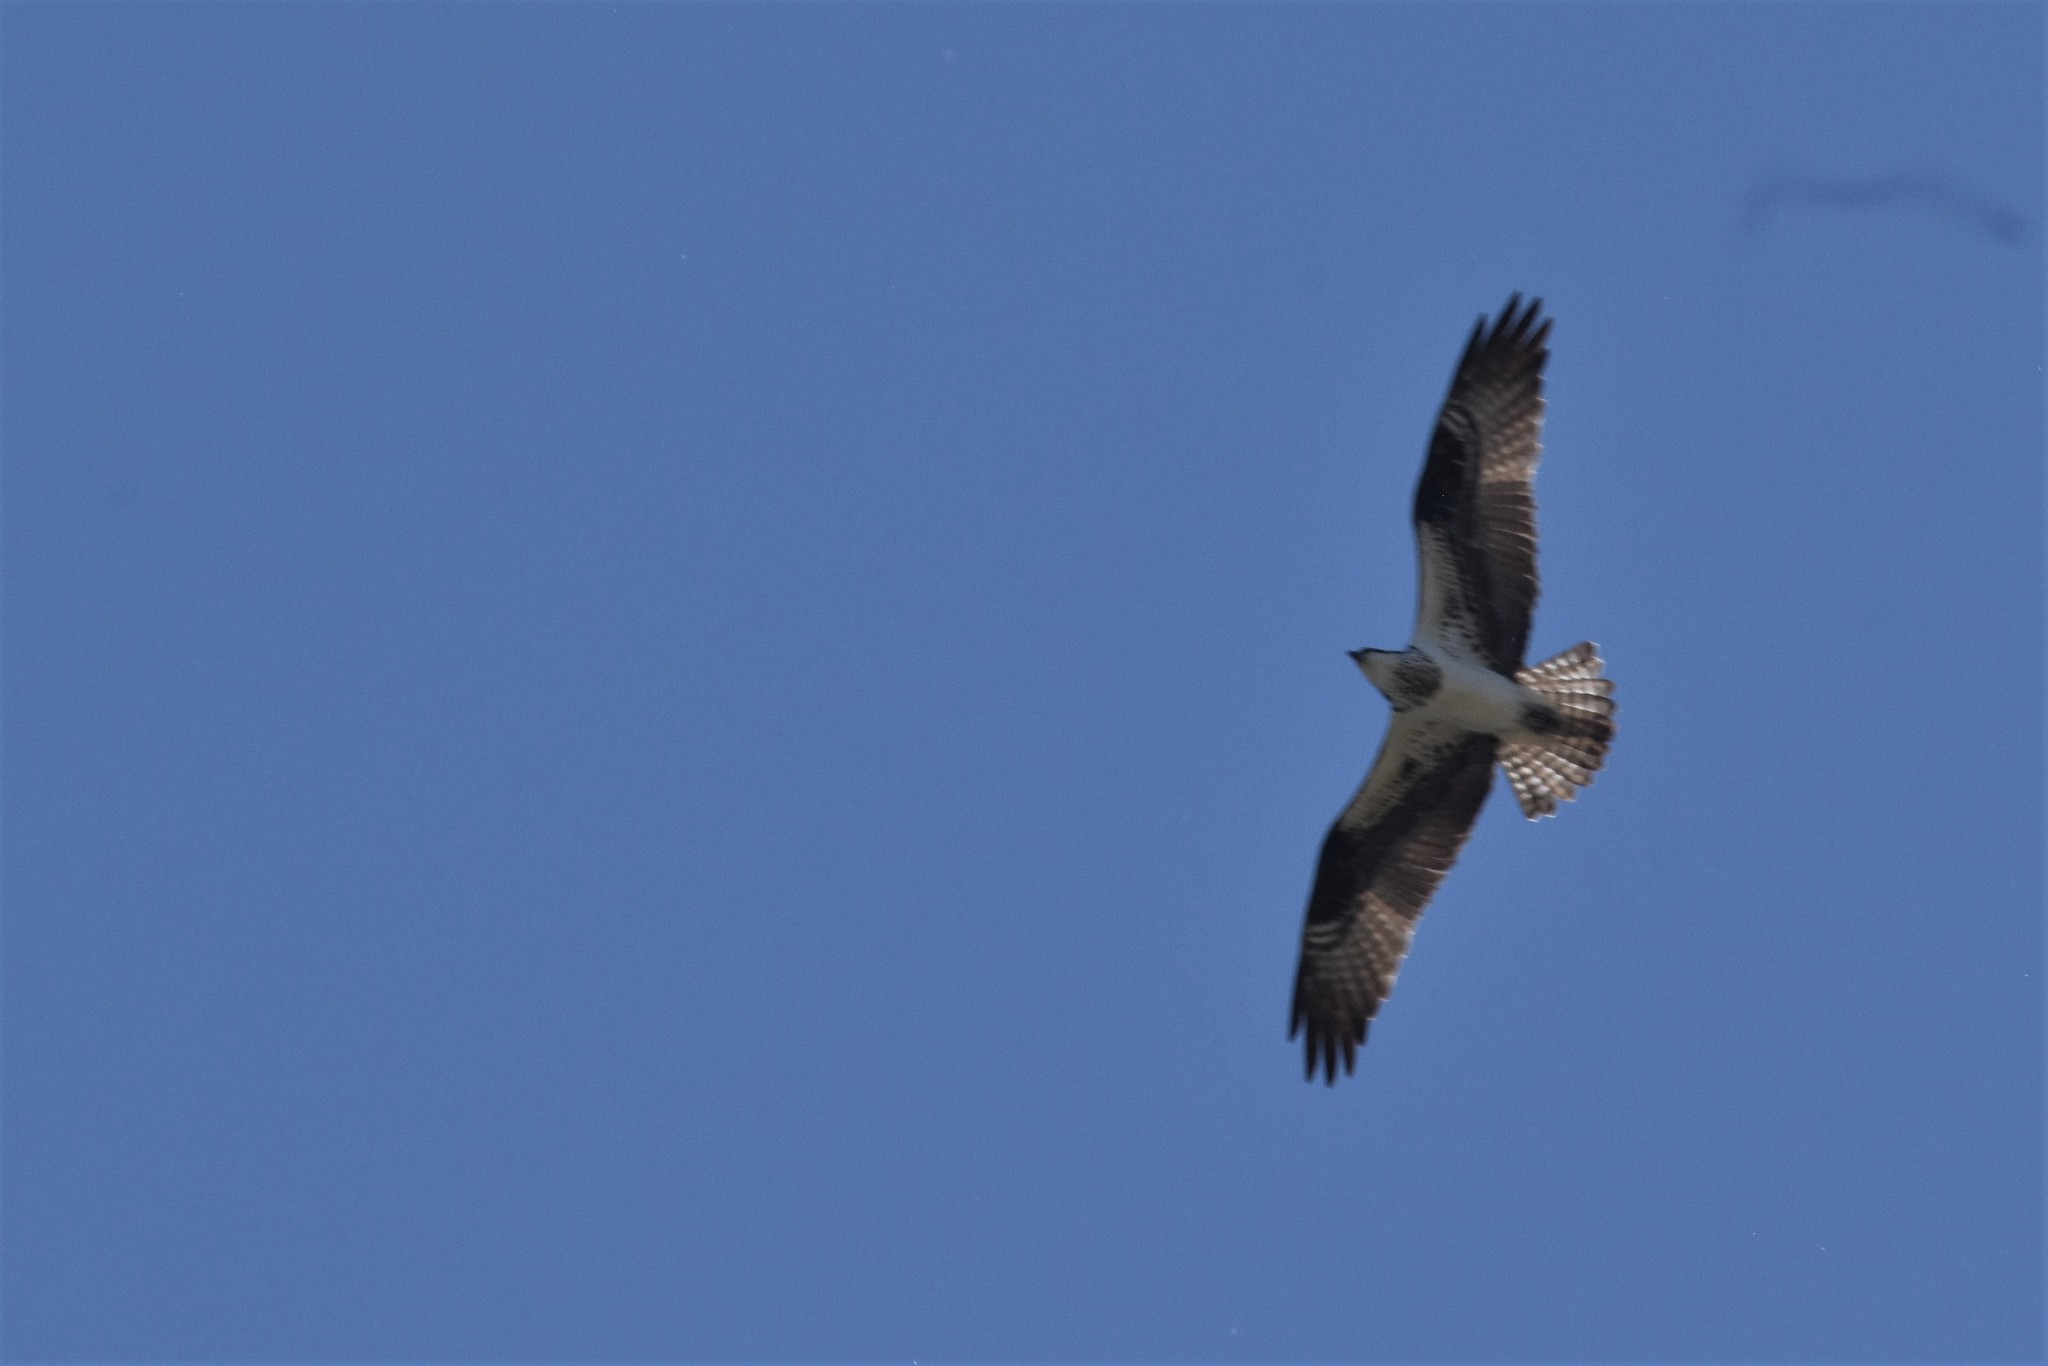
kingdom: Animalia
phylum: Chordata
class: Aves
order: Accipitriformes
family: Pandionidae
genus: Pandion
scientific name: Pandion haliaetus
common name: Osprey
